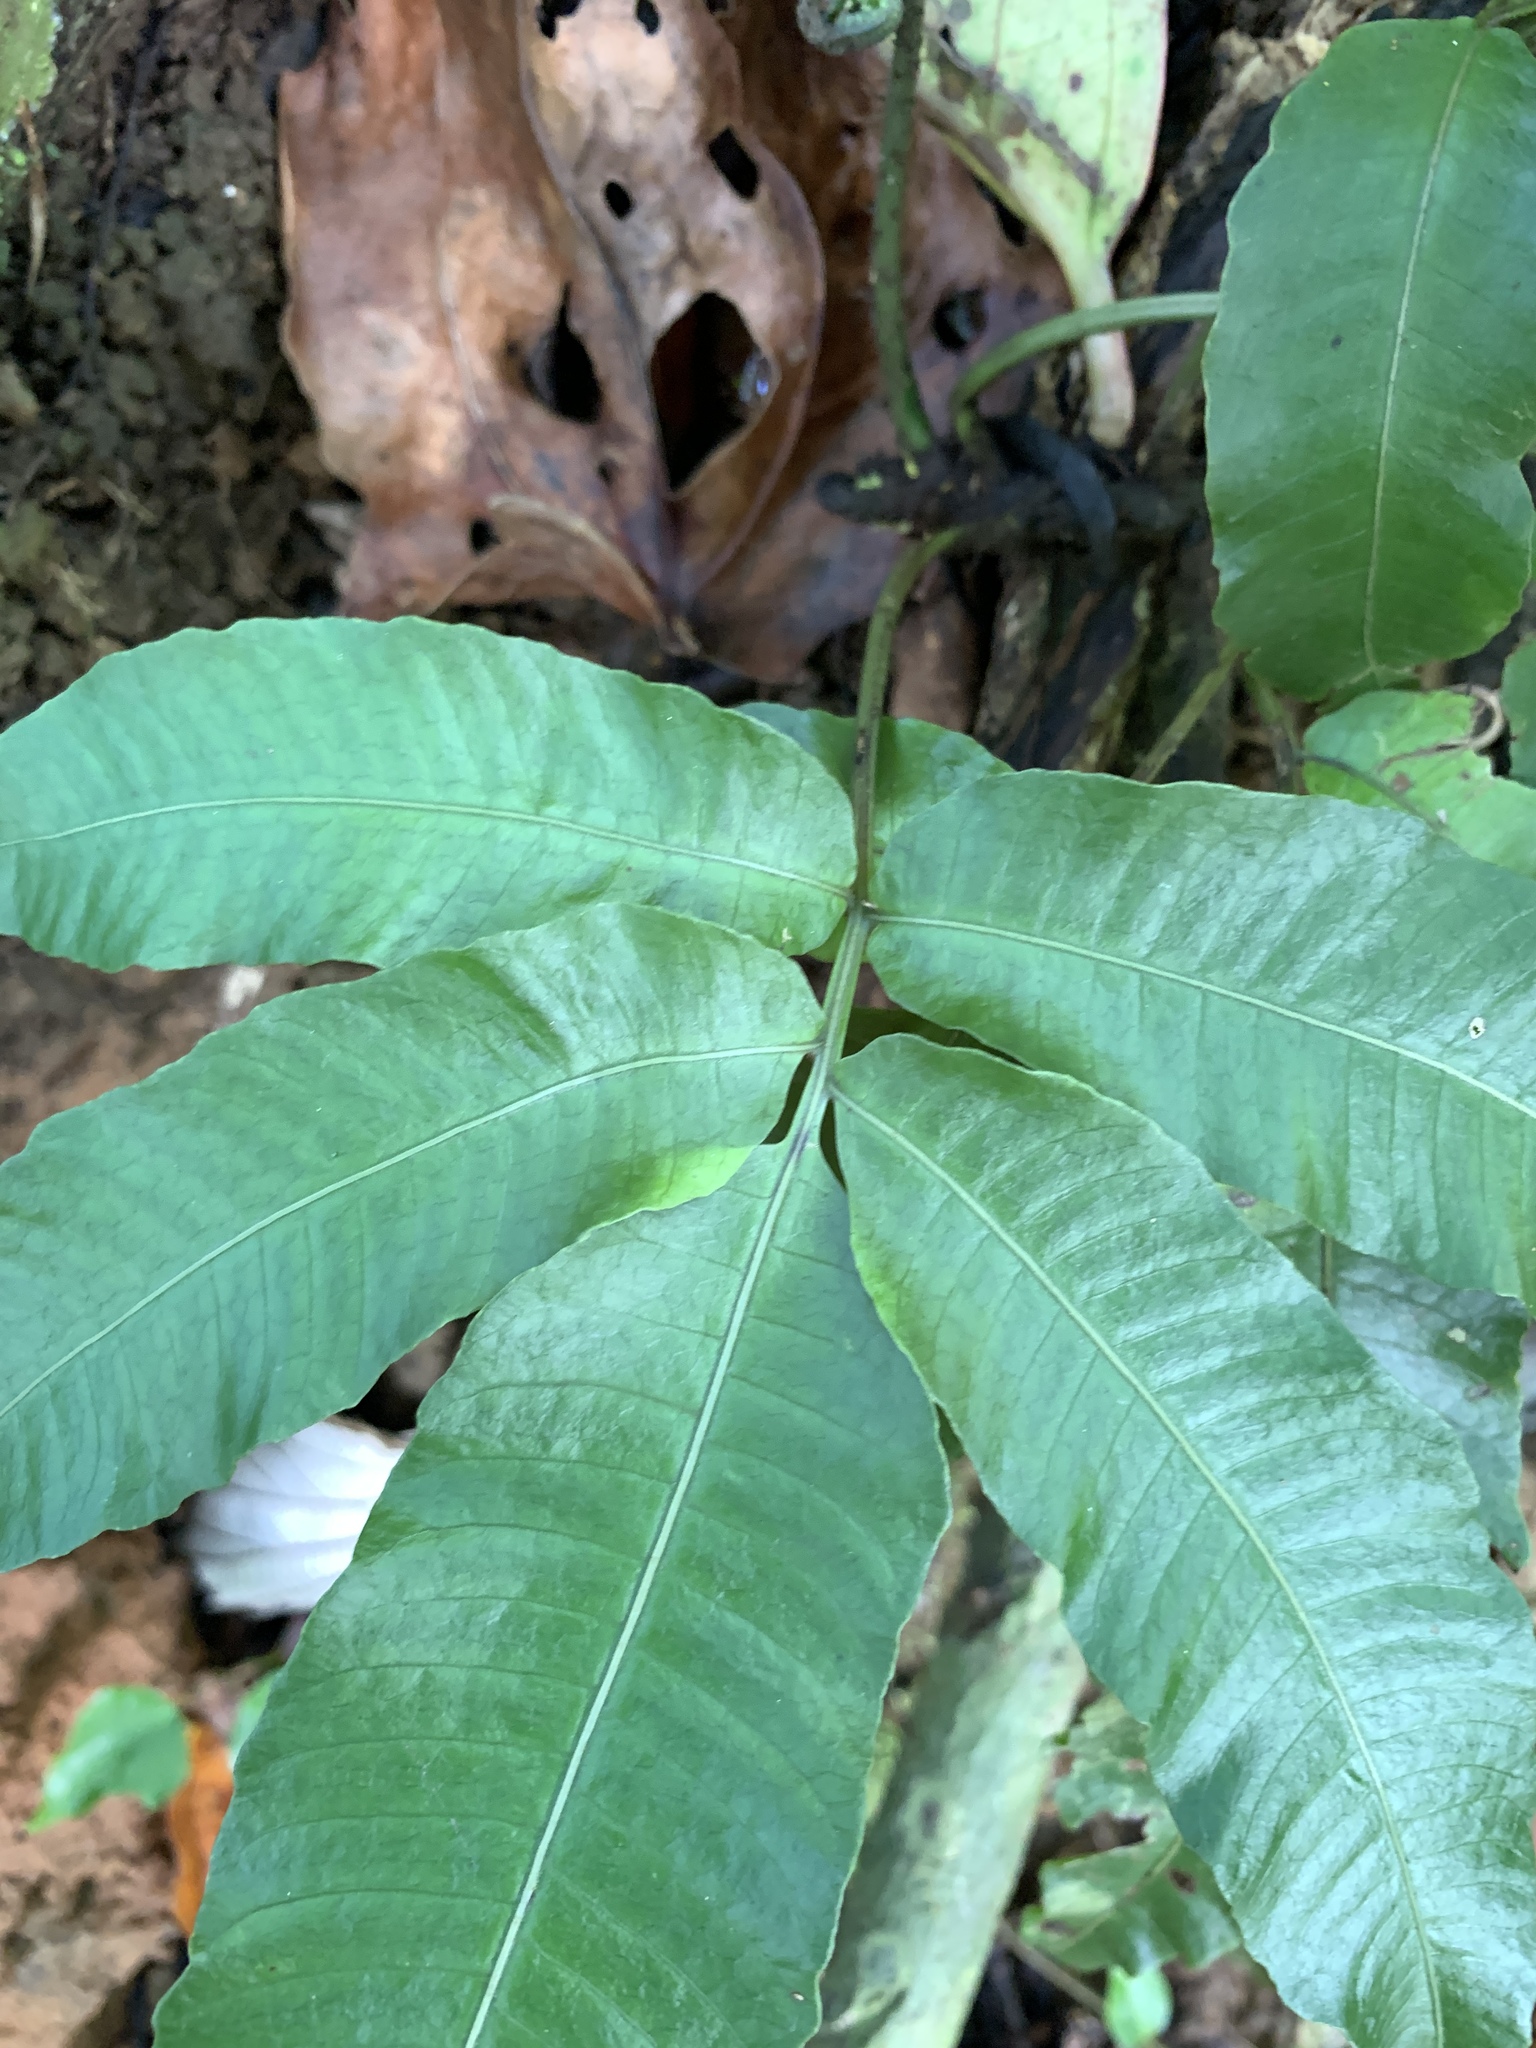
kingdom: Plantae
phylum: Tracheophyta
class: Polypodiopsida
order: Polypodiales
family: Dryopteridaceae
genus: Bolbitis
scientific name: Bolbitis heteroclita
